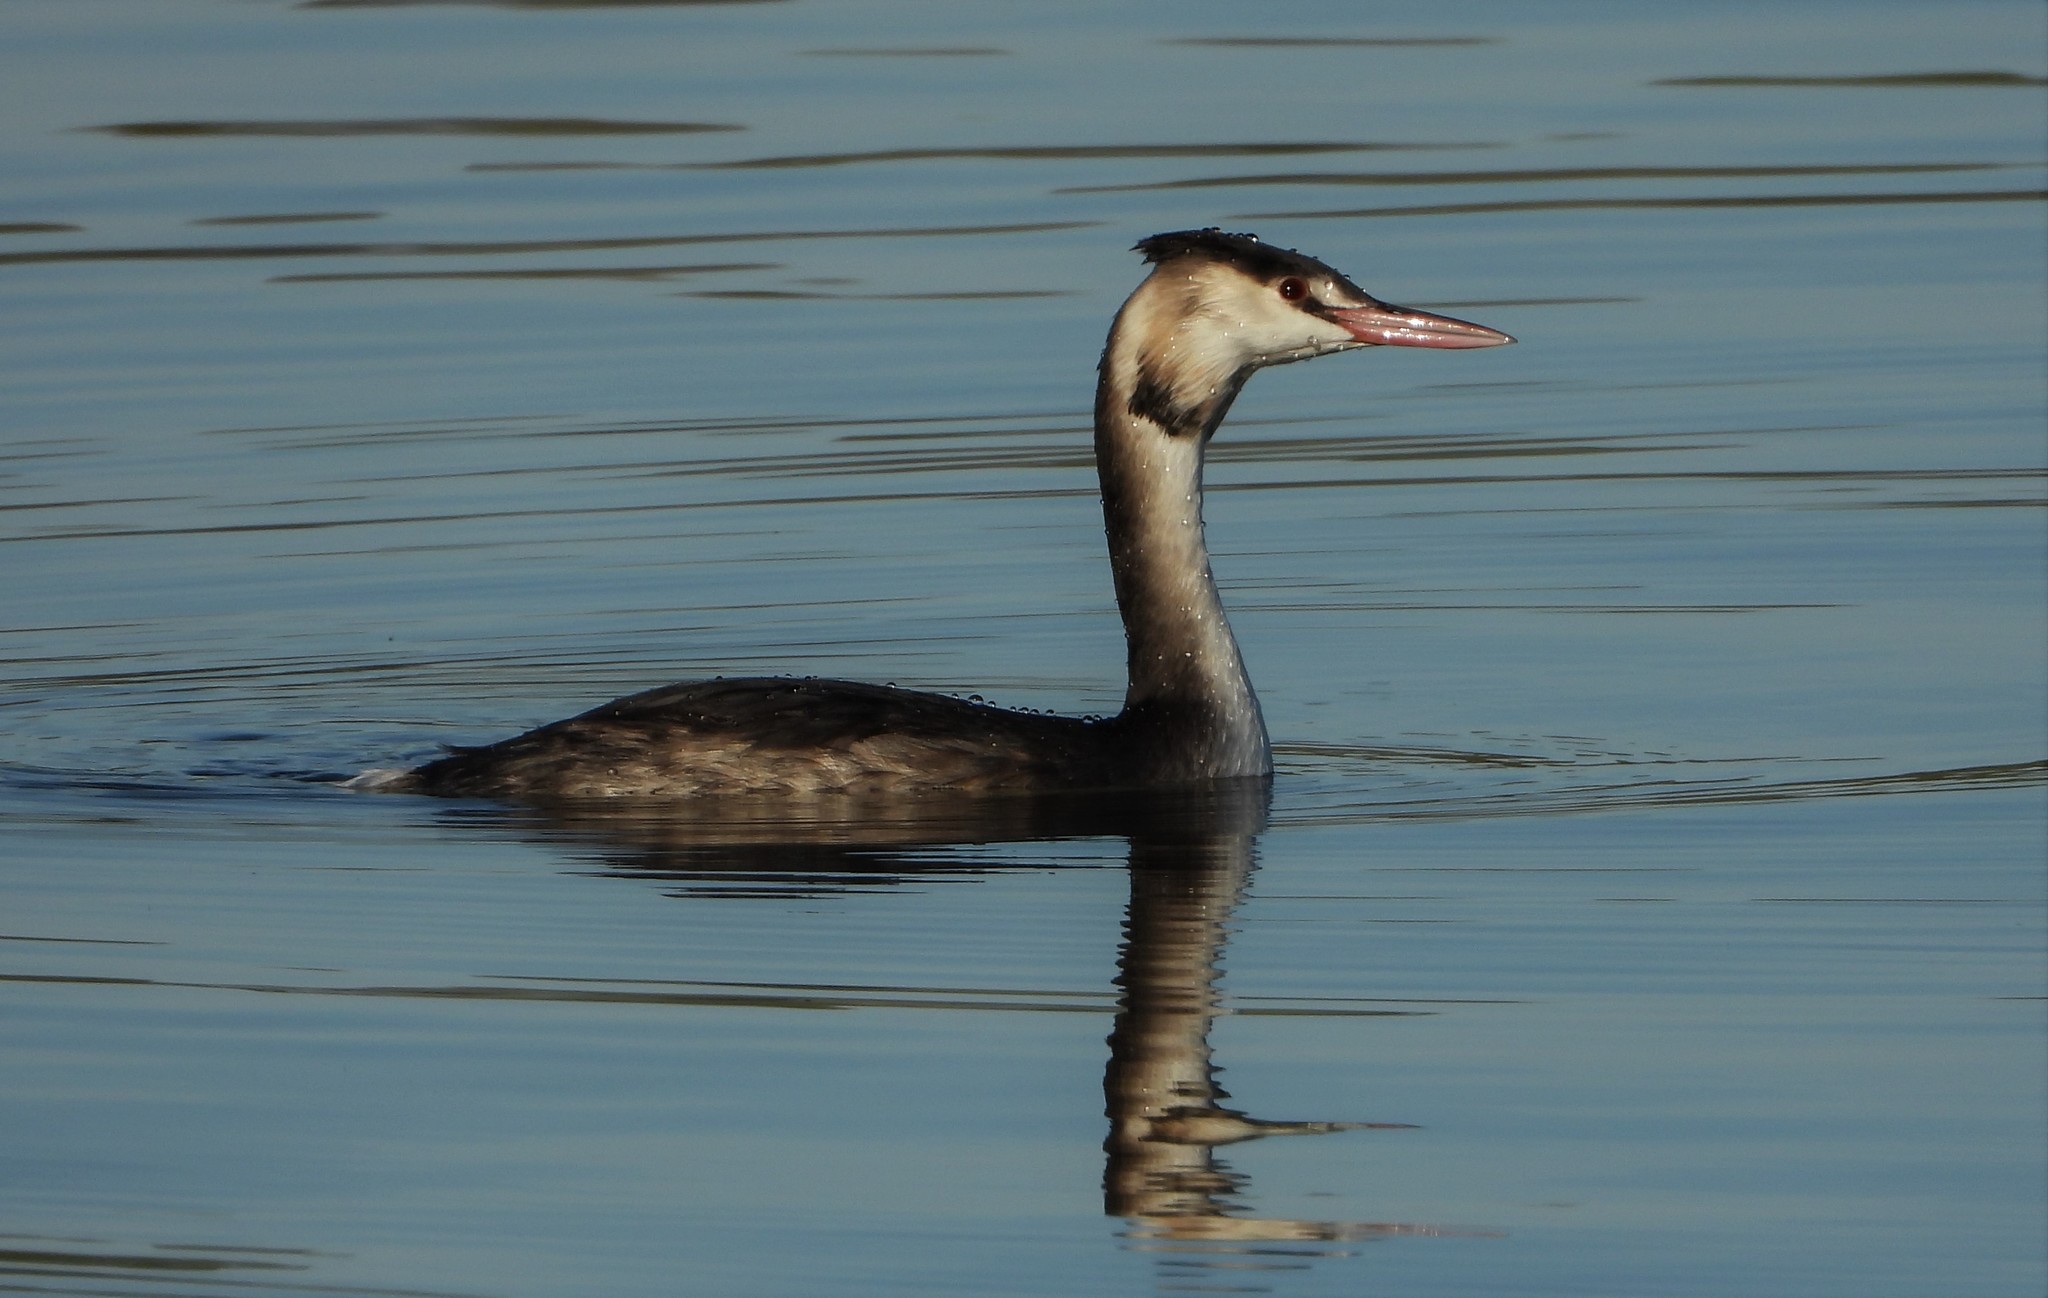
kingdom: Animalia
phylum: Chordata
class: Aves
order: Podicipediformes
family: Podicipedidae
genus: Podiceps
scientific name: Podiceps cristatus
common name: Great crested grebe
